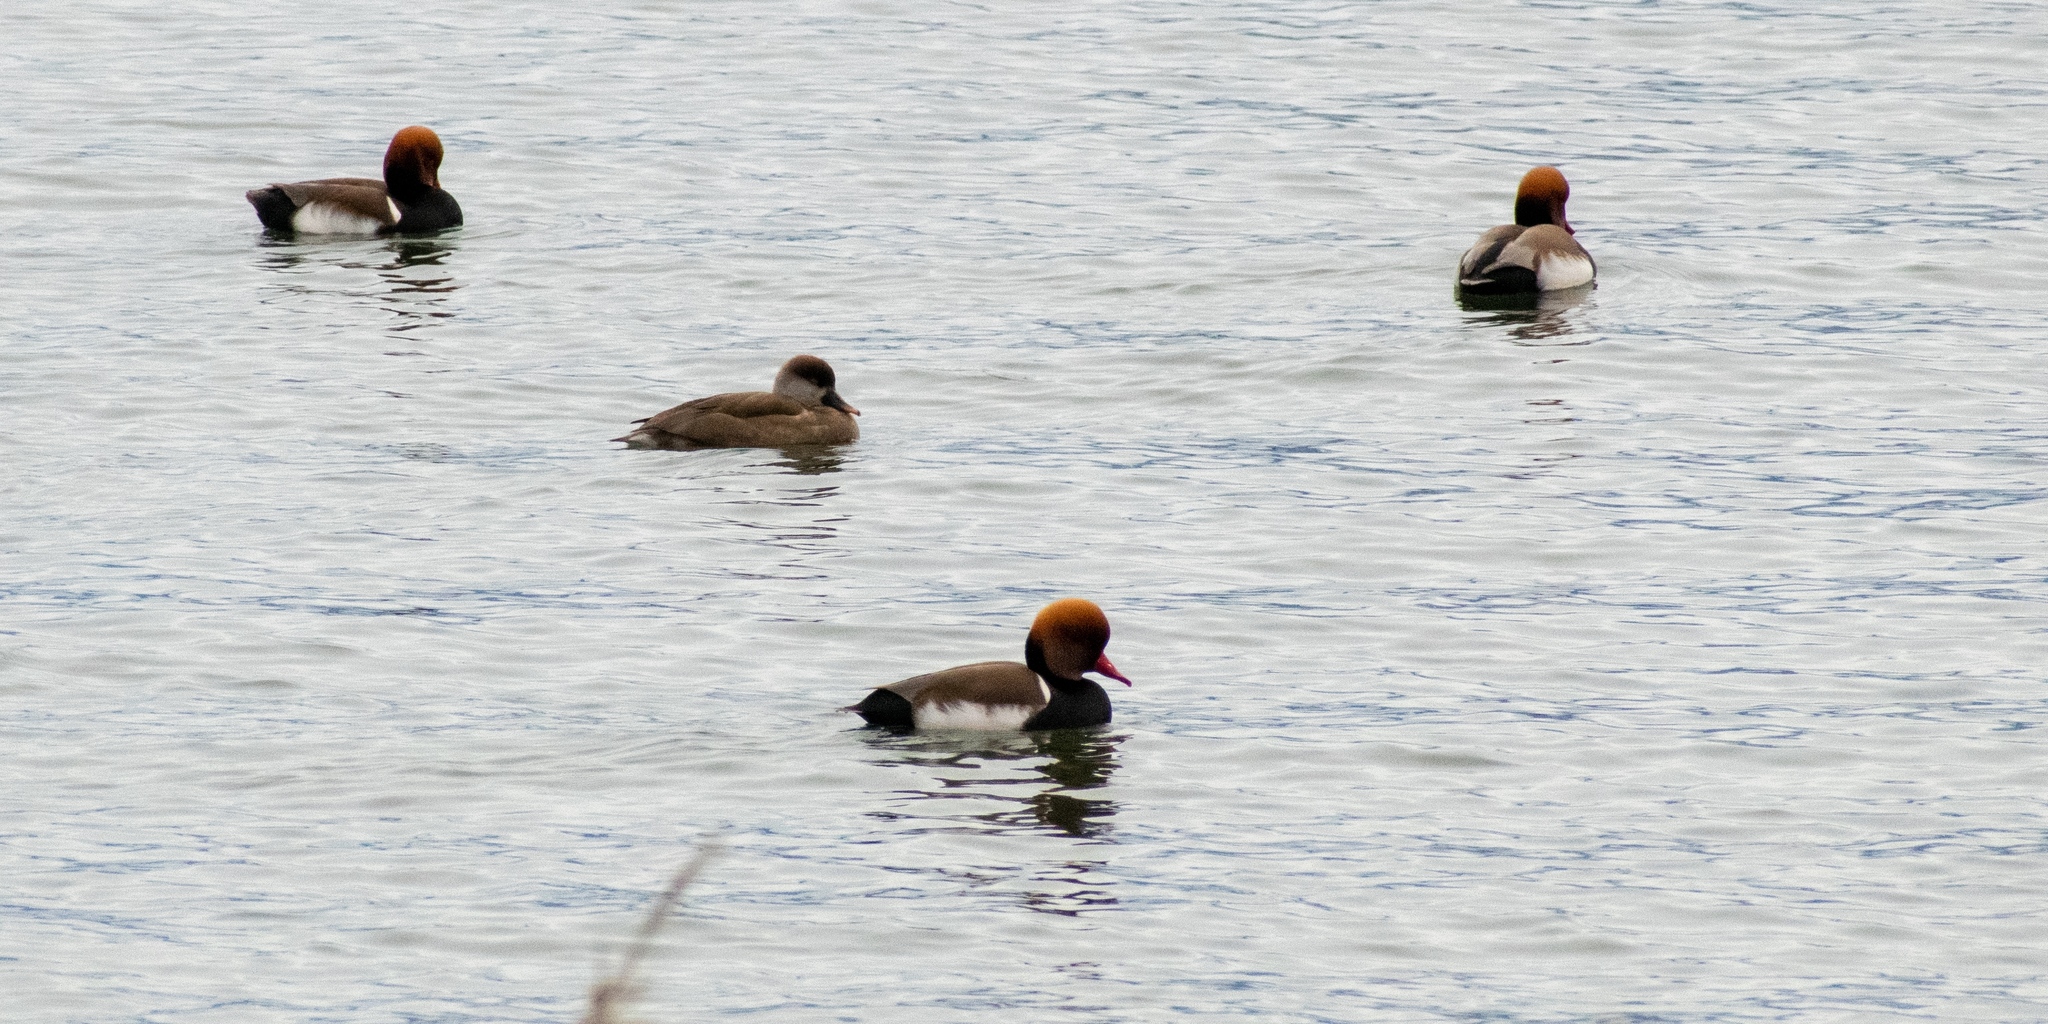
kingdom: Animalia
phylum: Chordata
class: Aves
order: Anseriformes
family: Anatidae
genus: Netta
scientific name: Netta rufina
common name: Red-crested pochard
